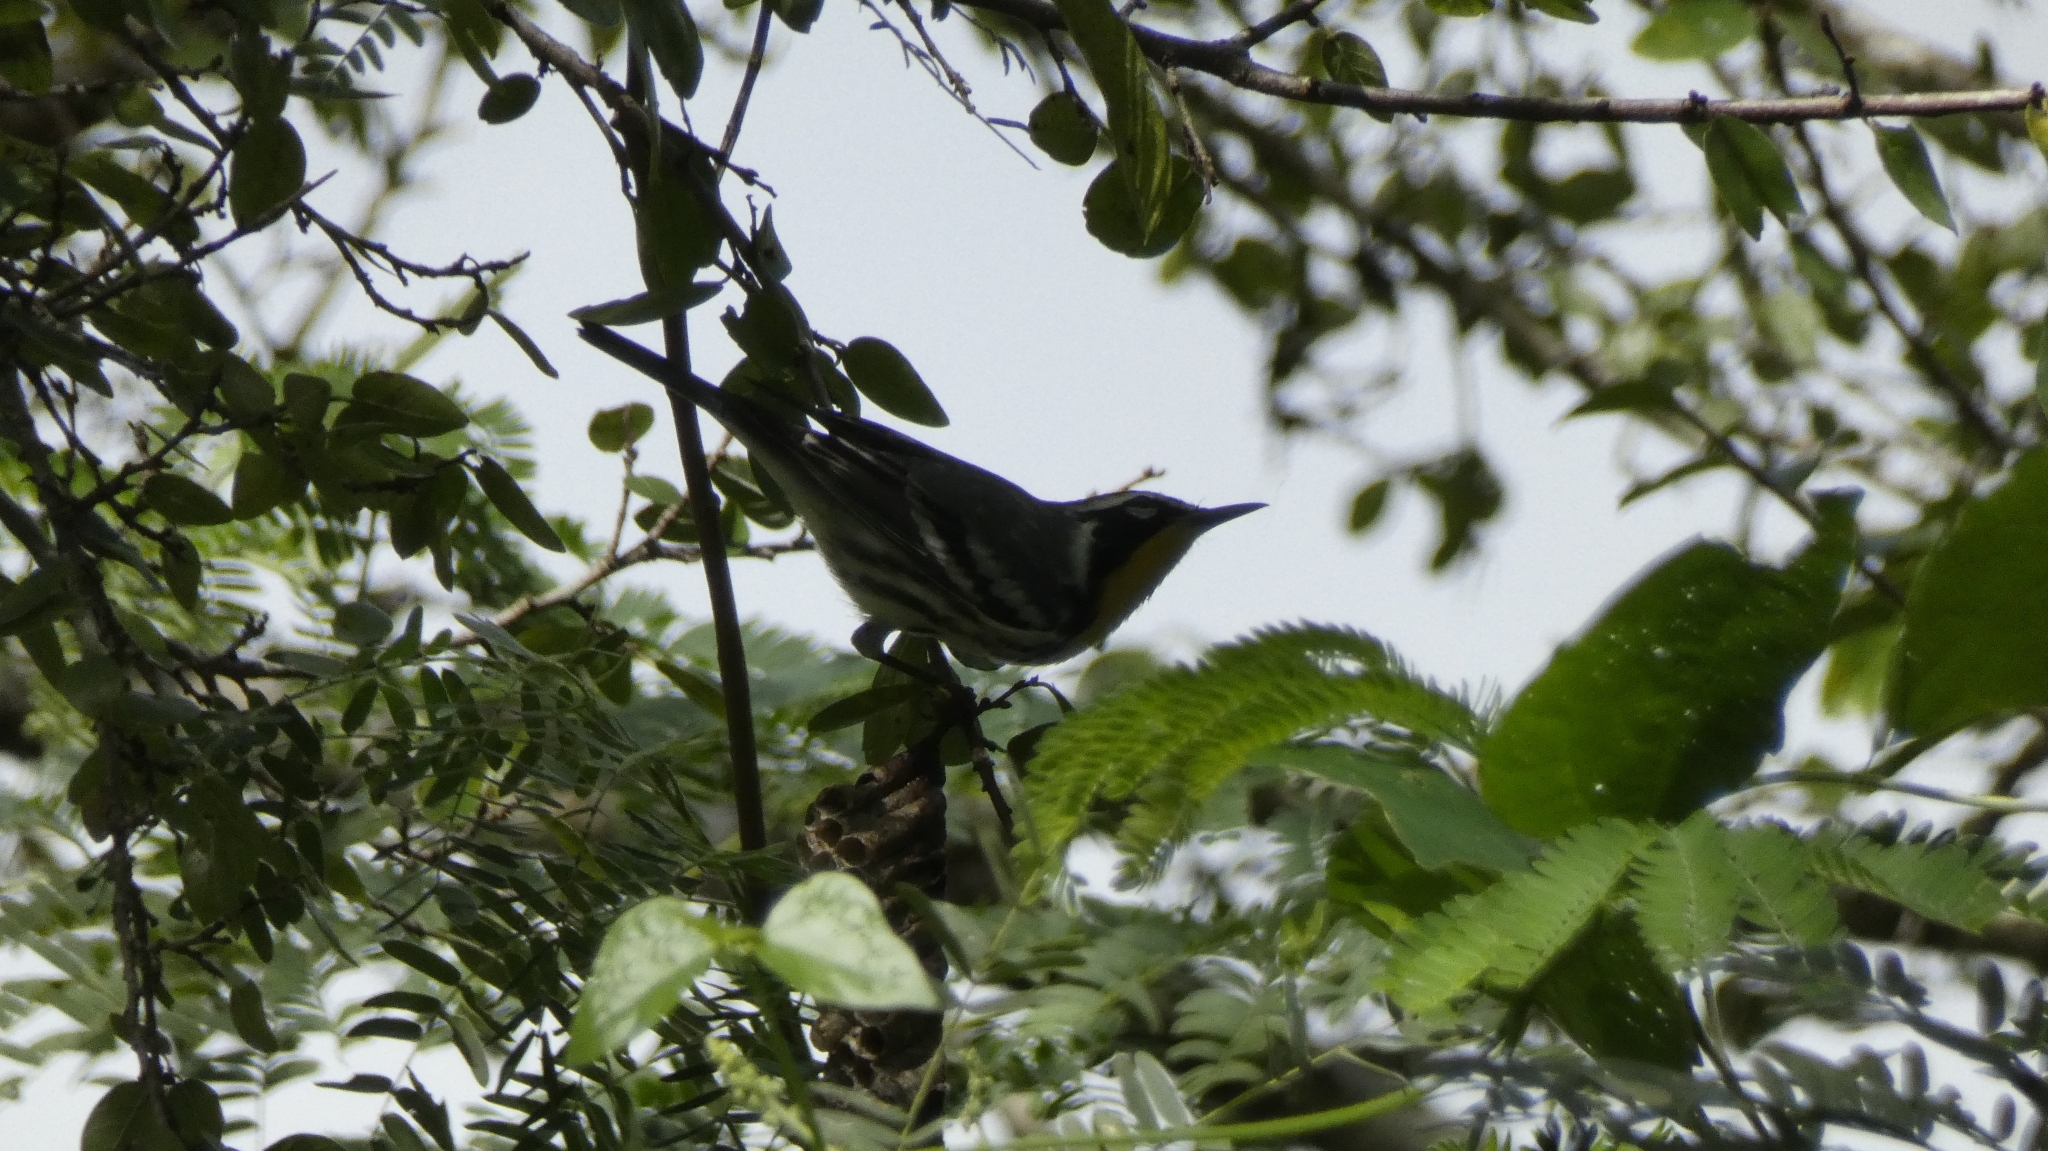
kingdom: Animalia
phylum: Chordata
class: Aves
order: Passeriformes
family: Parulidae
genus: Setophaga
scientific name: Setophaga dominica
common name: Yellow-throated warbler
